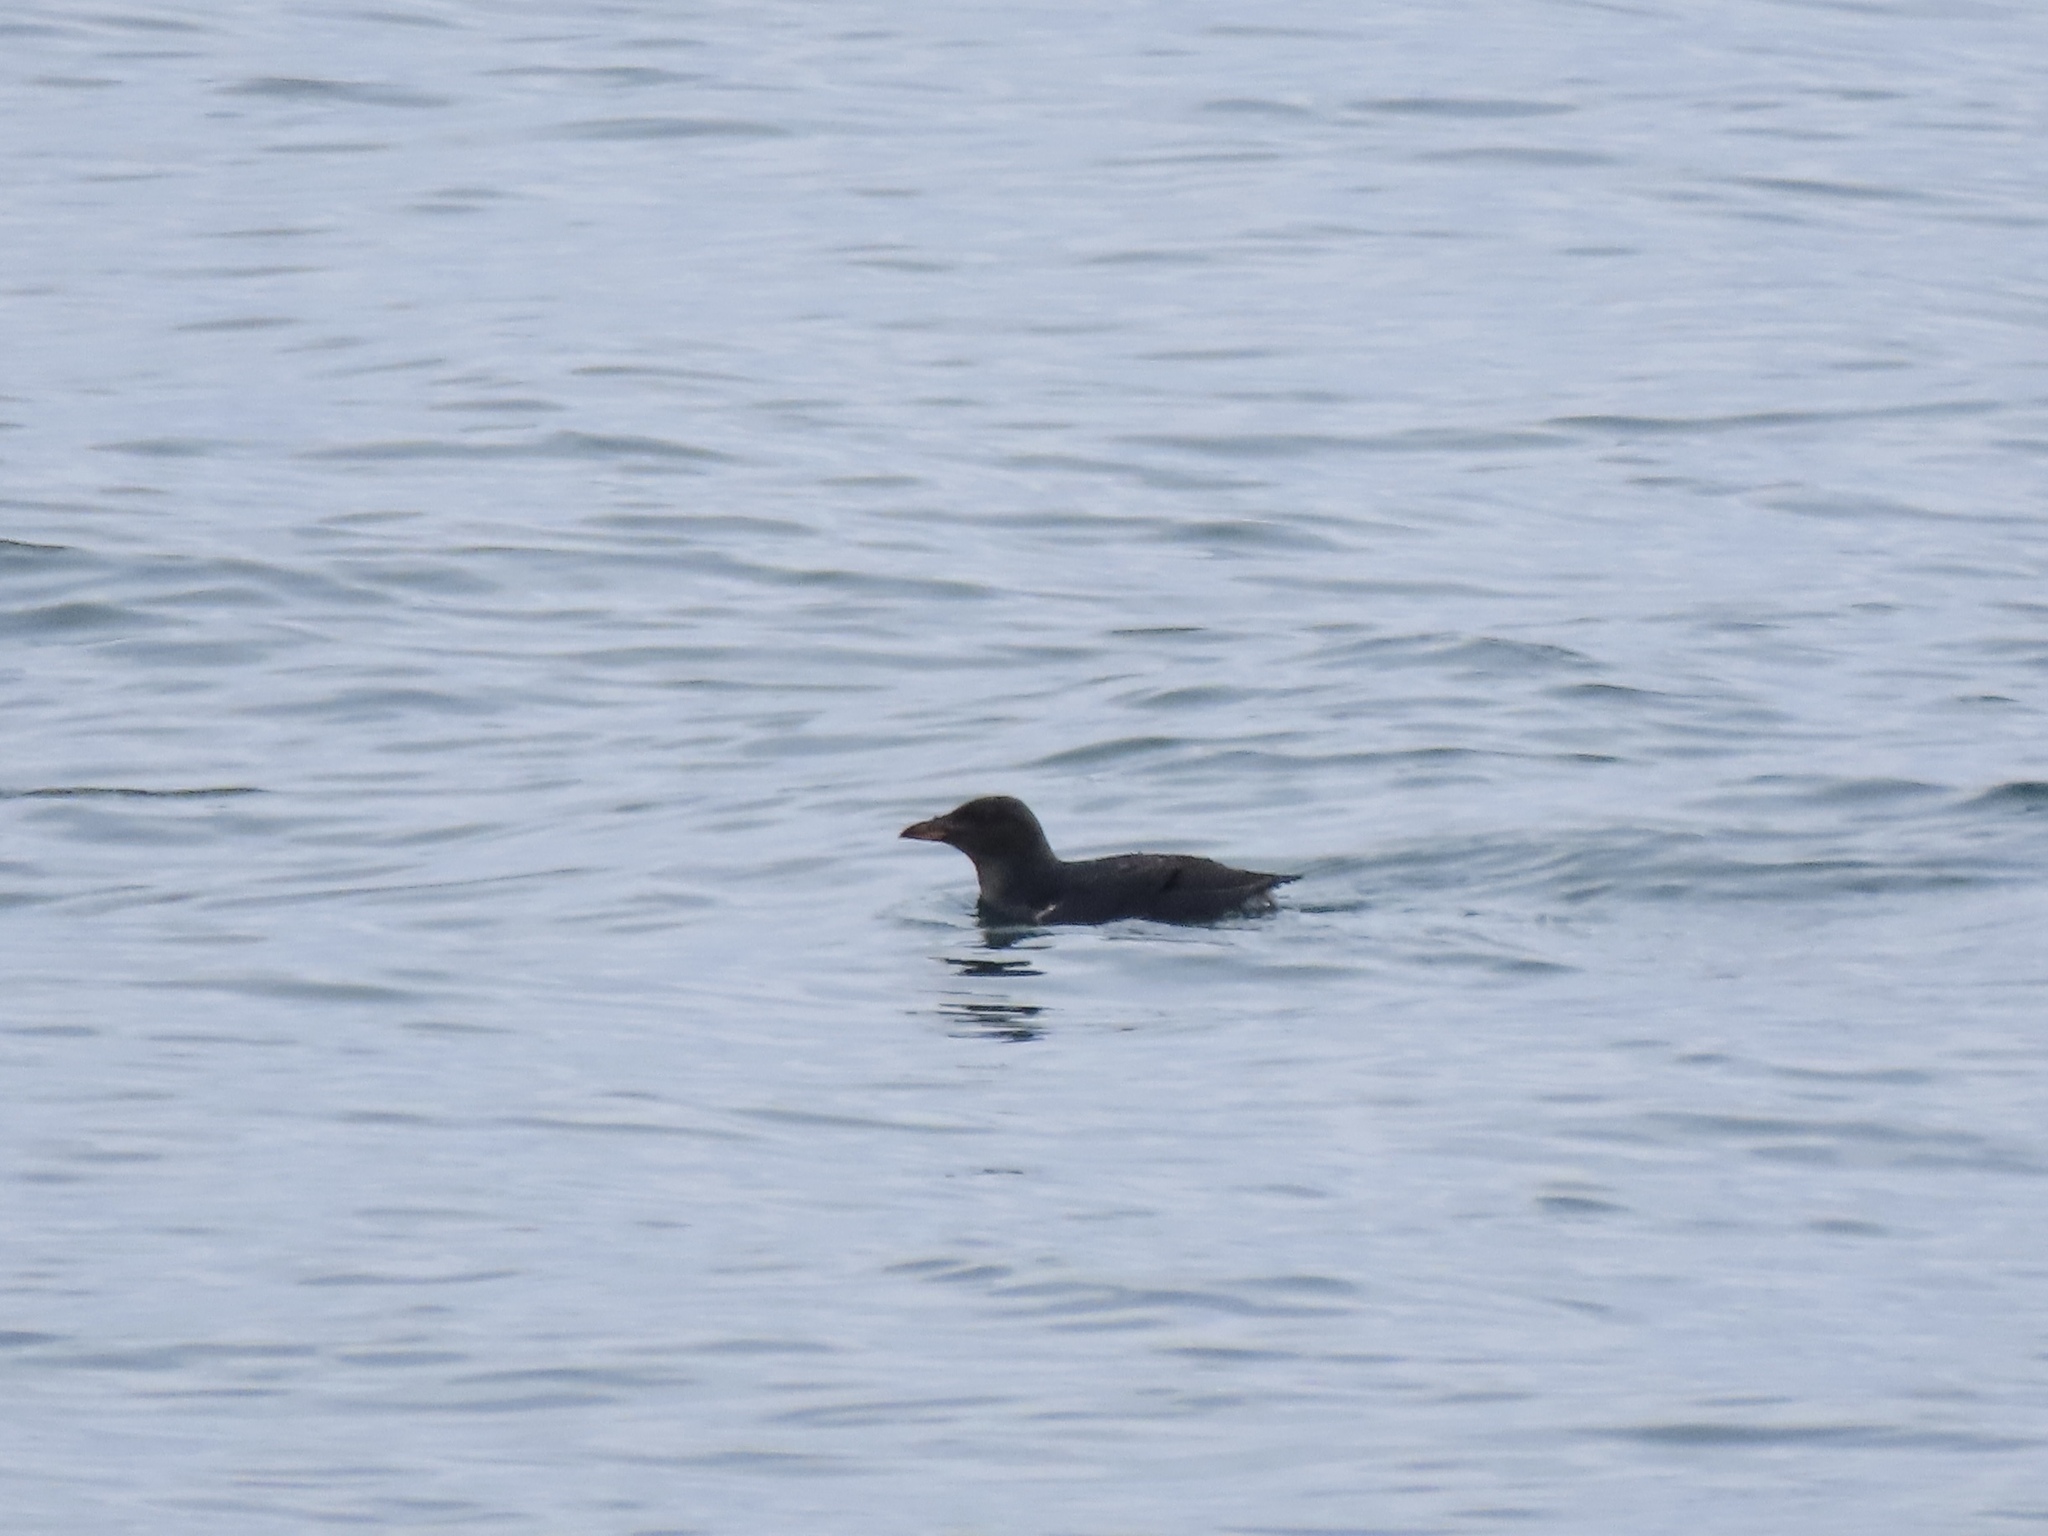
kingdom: Animalia
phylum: Chordata
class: Aves
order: Charadriiformes
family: Alcidae
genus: Cerorhinca
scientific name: Cerorhinca monocerata
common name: Rhinoceros auklet
